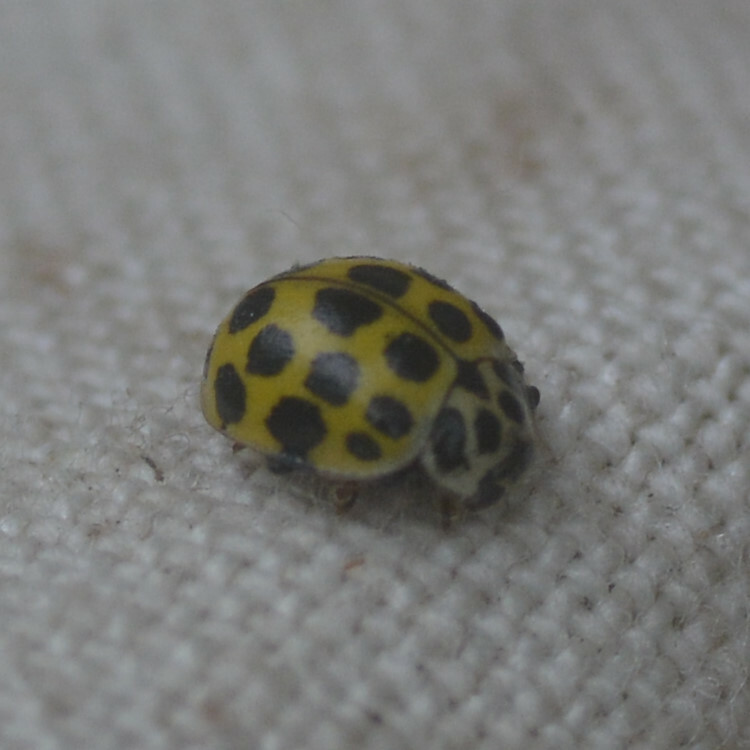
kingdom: Animalia
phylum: Arthropoda
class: Insecta
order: Coleoptera
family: Coccinellidae
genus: Psyllobora
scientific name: Psyllobora vigintiduopunctata
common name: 22-spot ladybird
